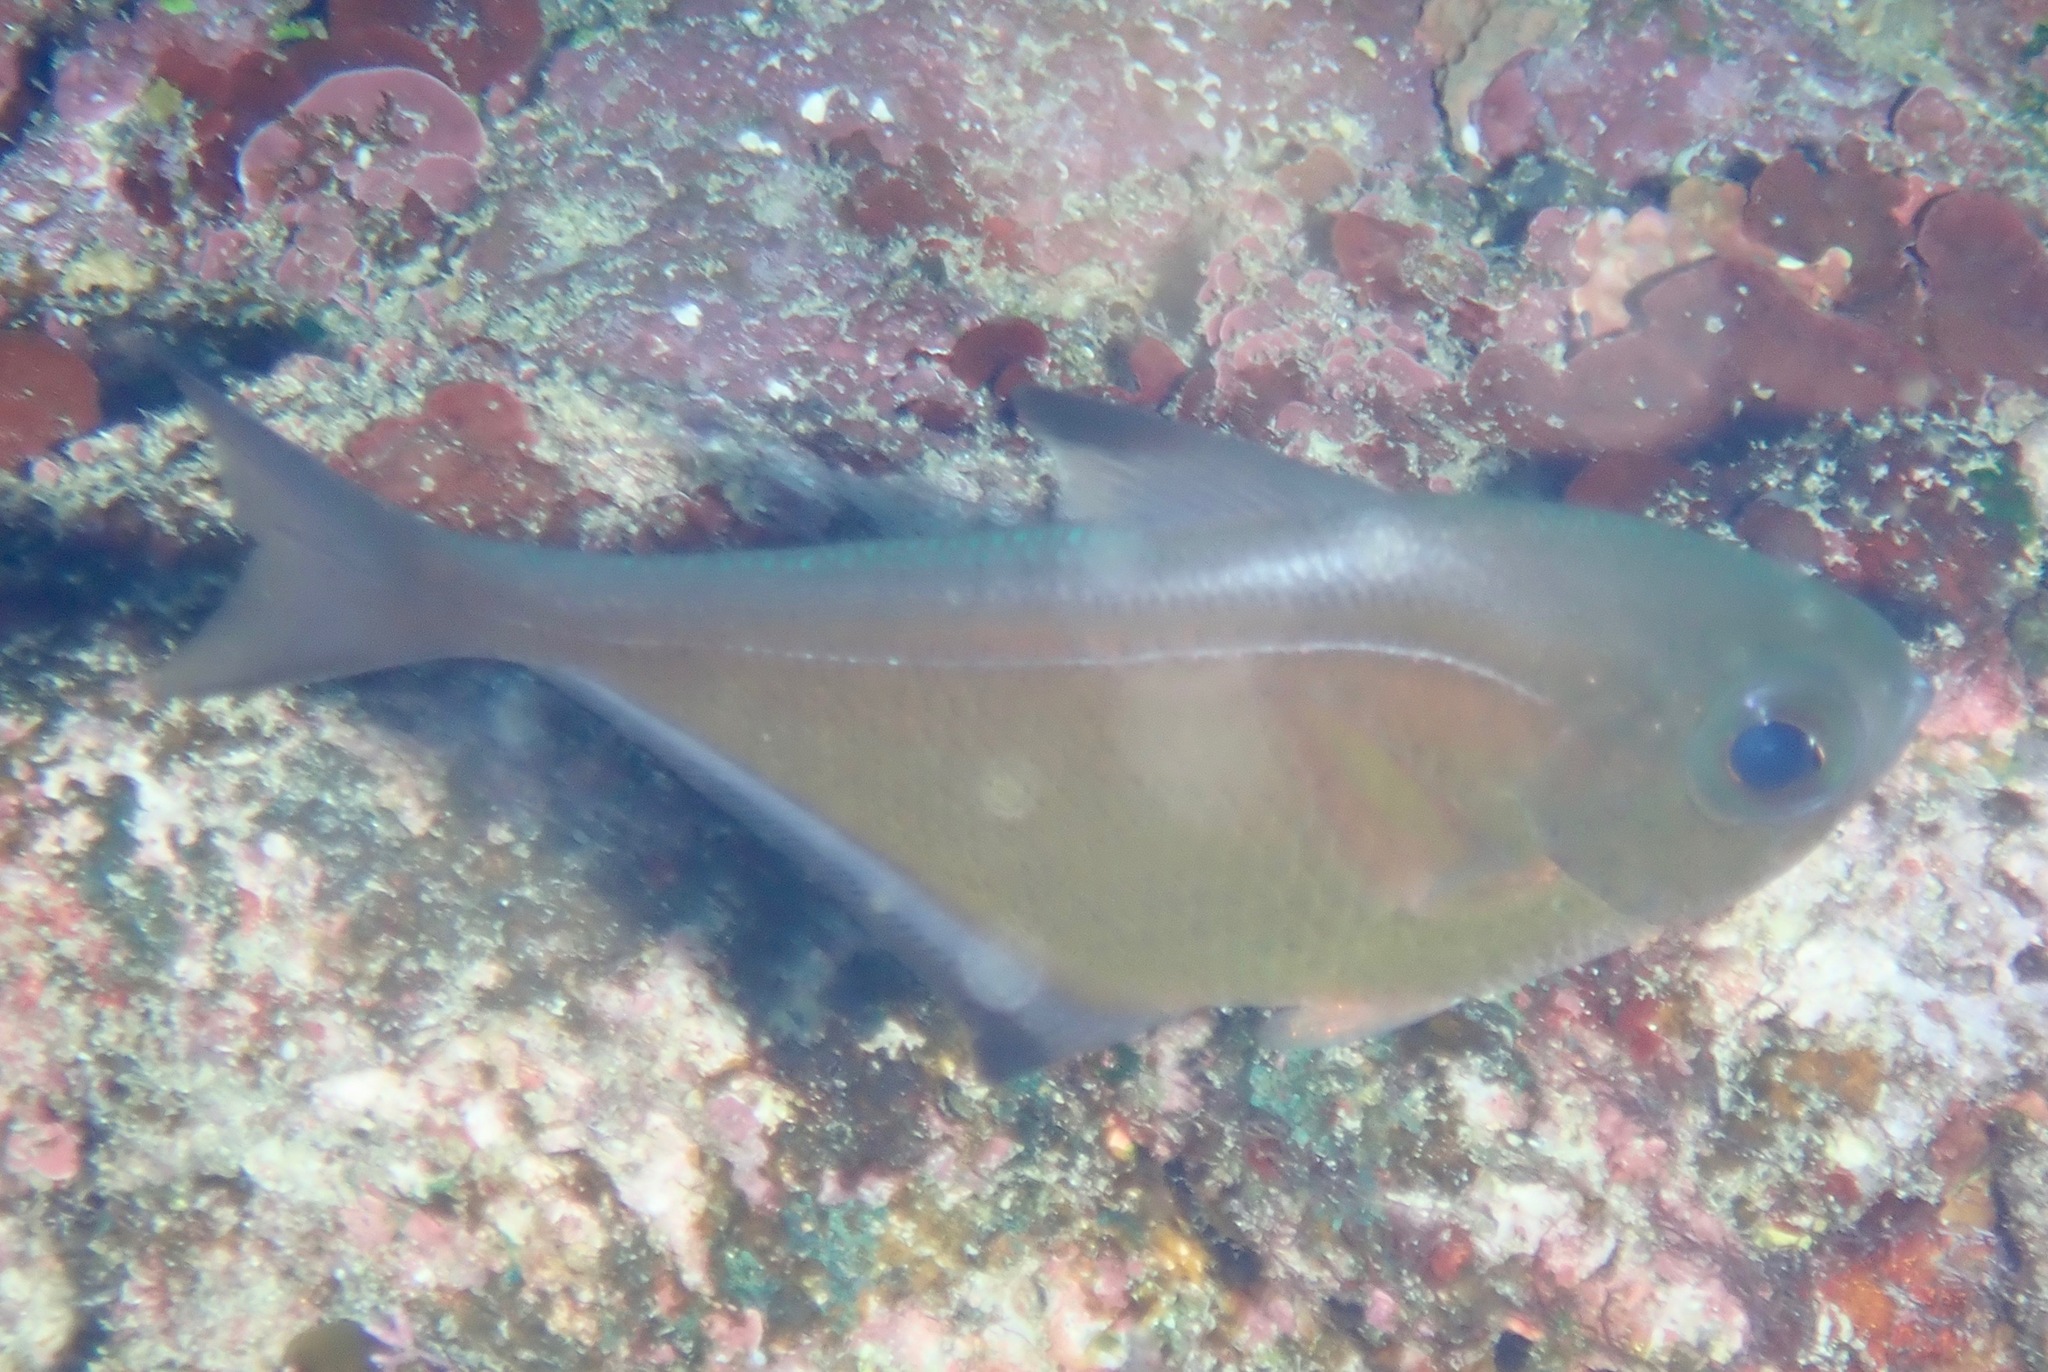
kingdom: Animalia
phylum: Chordata
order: Perciformes
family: Pempheridae
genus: Pempheris
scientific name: Pempheris vanicolensis
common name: Vanikoro sweeper
